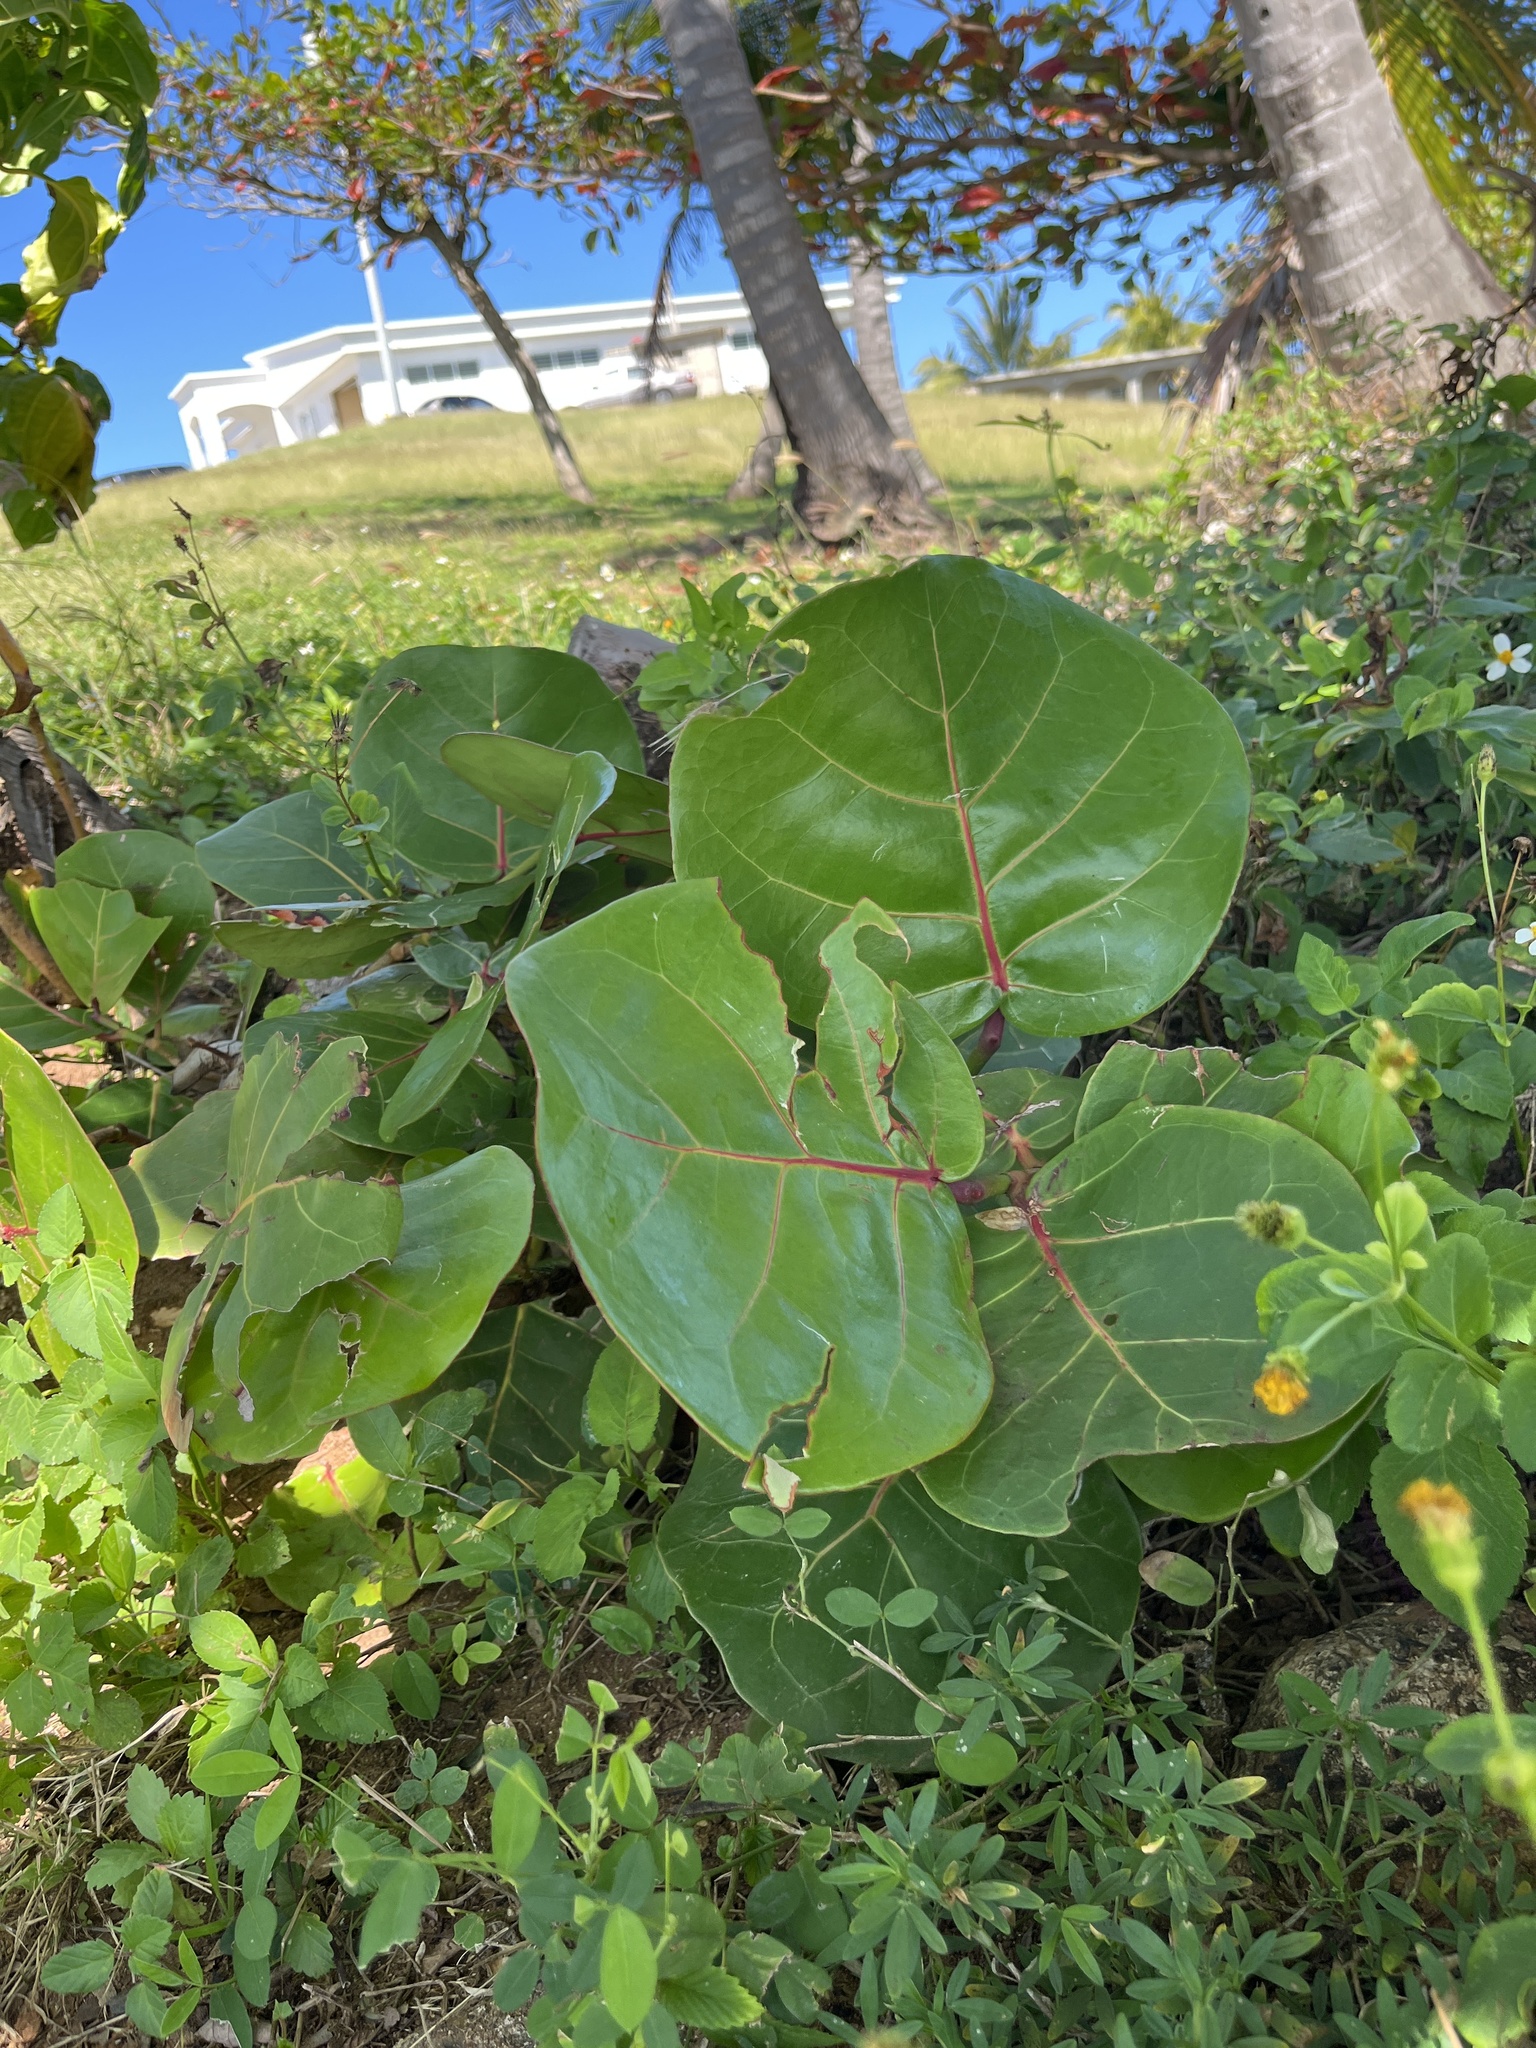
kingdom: Plantae
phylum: Tracheophyta
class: Magnoliopsida
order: Caryophyllales
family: Polygonaceae
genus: Coccoloba
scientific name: Coccoloba uvifera
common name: Seagrape
